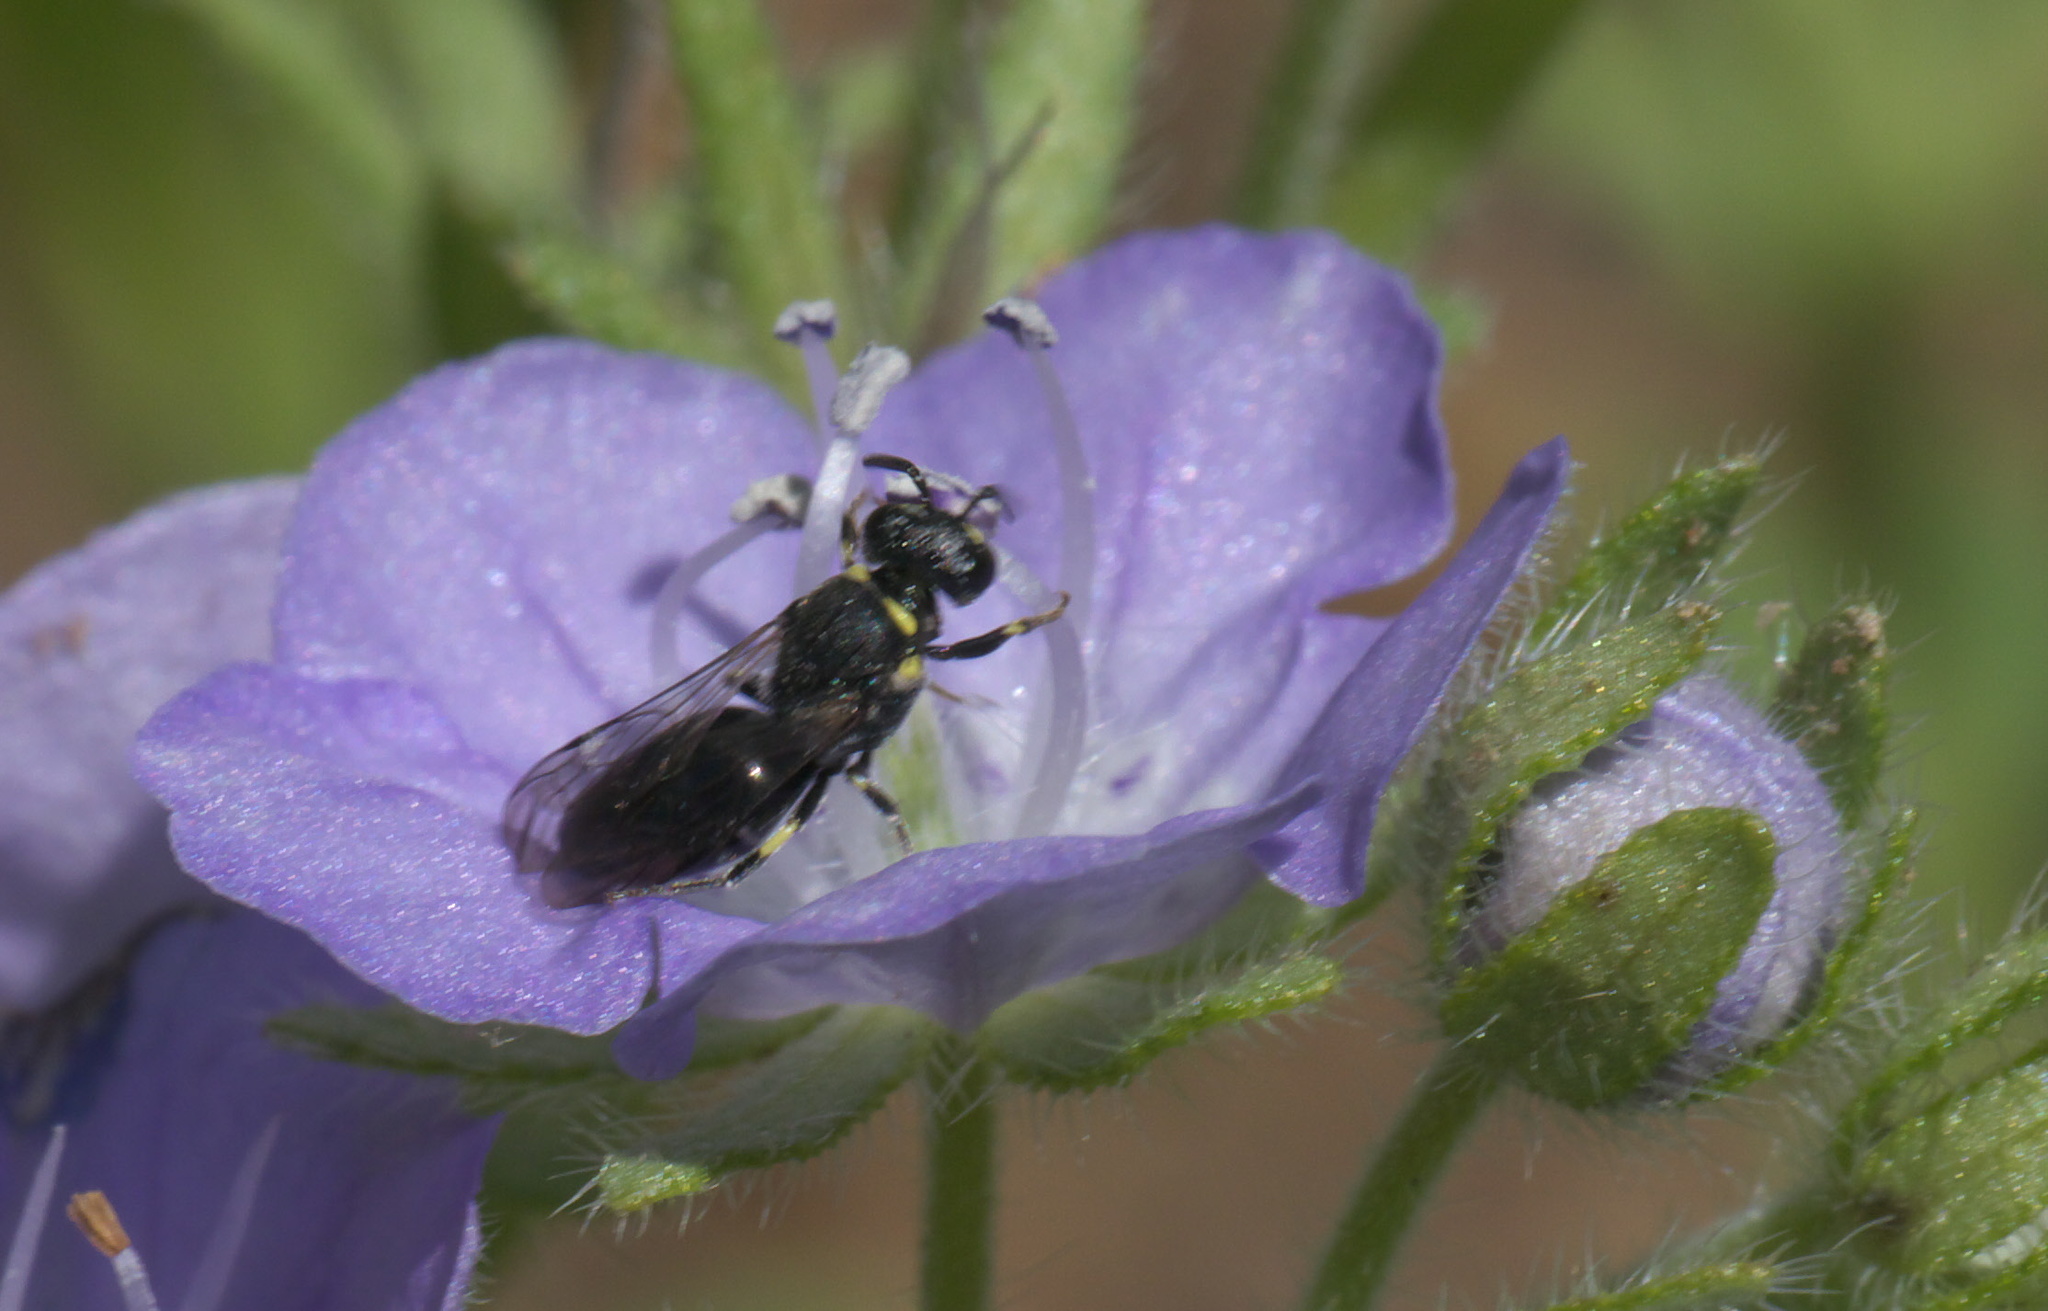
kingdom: Animalia
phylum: Arthropoda
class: Insecta
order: Hymenoptera
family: Colletidae
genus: Hylaeus
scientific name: Hylaeus modestus
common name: Yellow-faced bee
